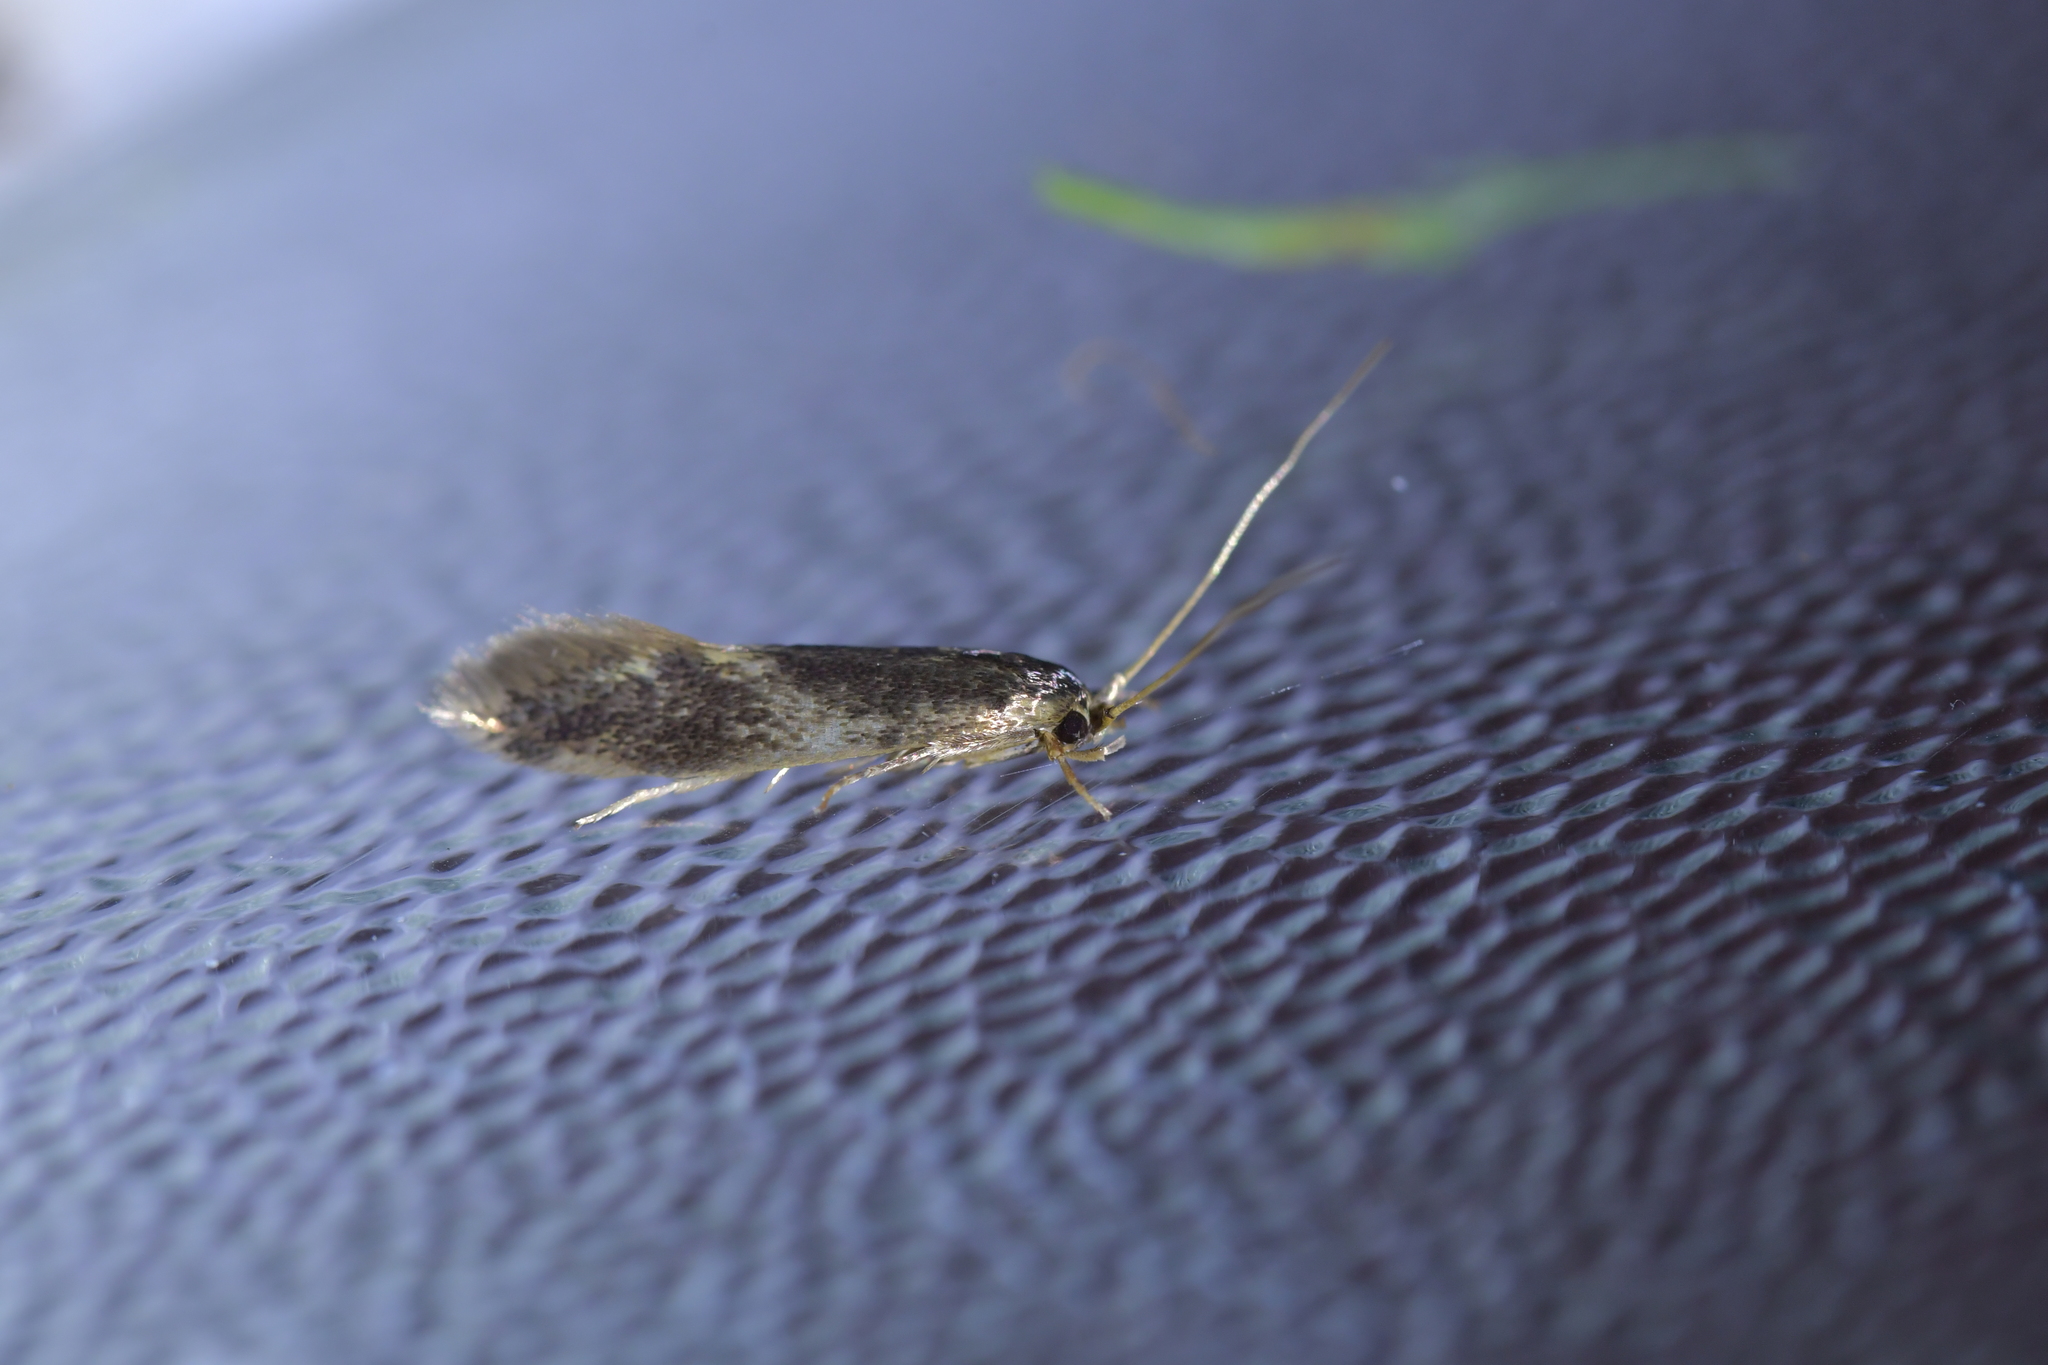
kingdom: Animalia
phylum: Arthropoda
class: Insecta
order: Lepidoptera
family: Tineidae
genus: Opogona
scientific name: Opogona omoscopa
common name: Moth
